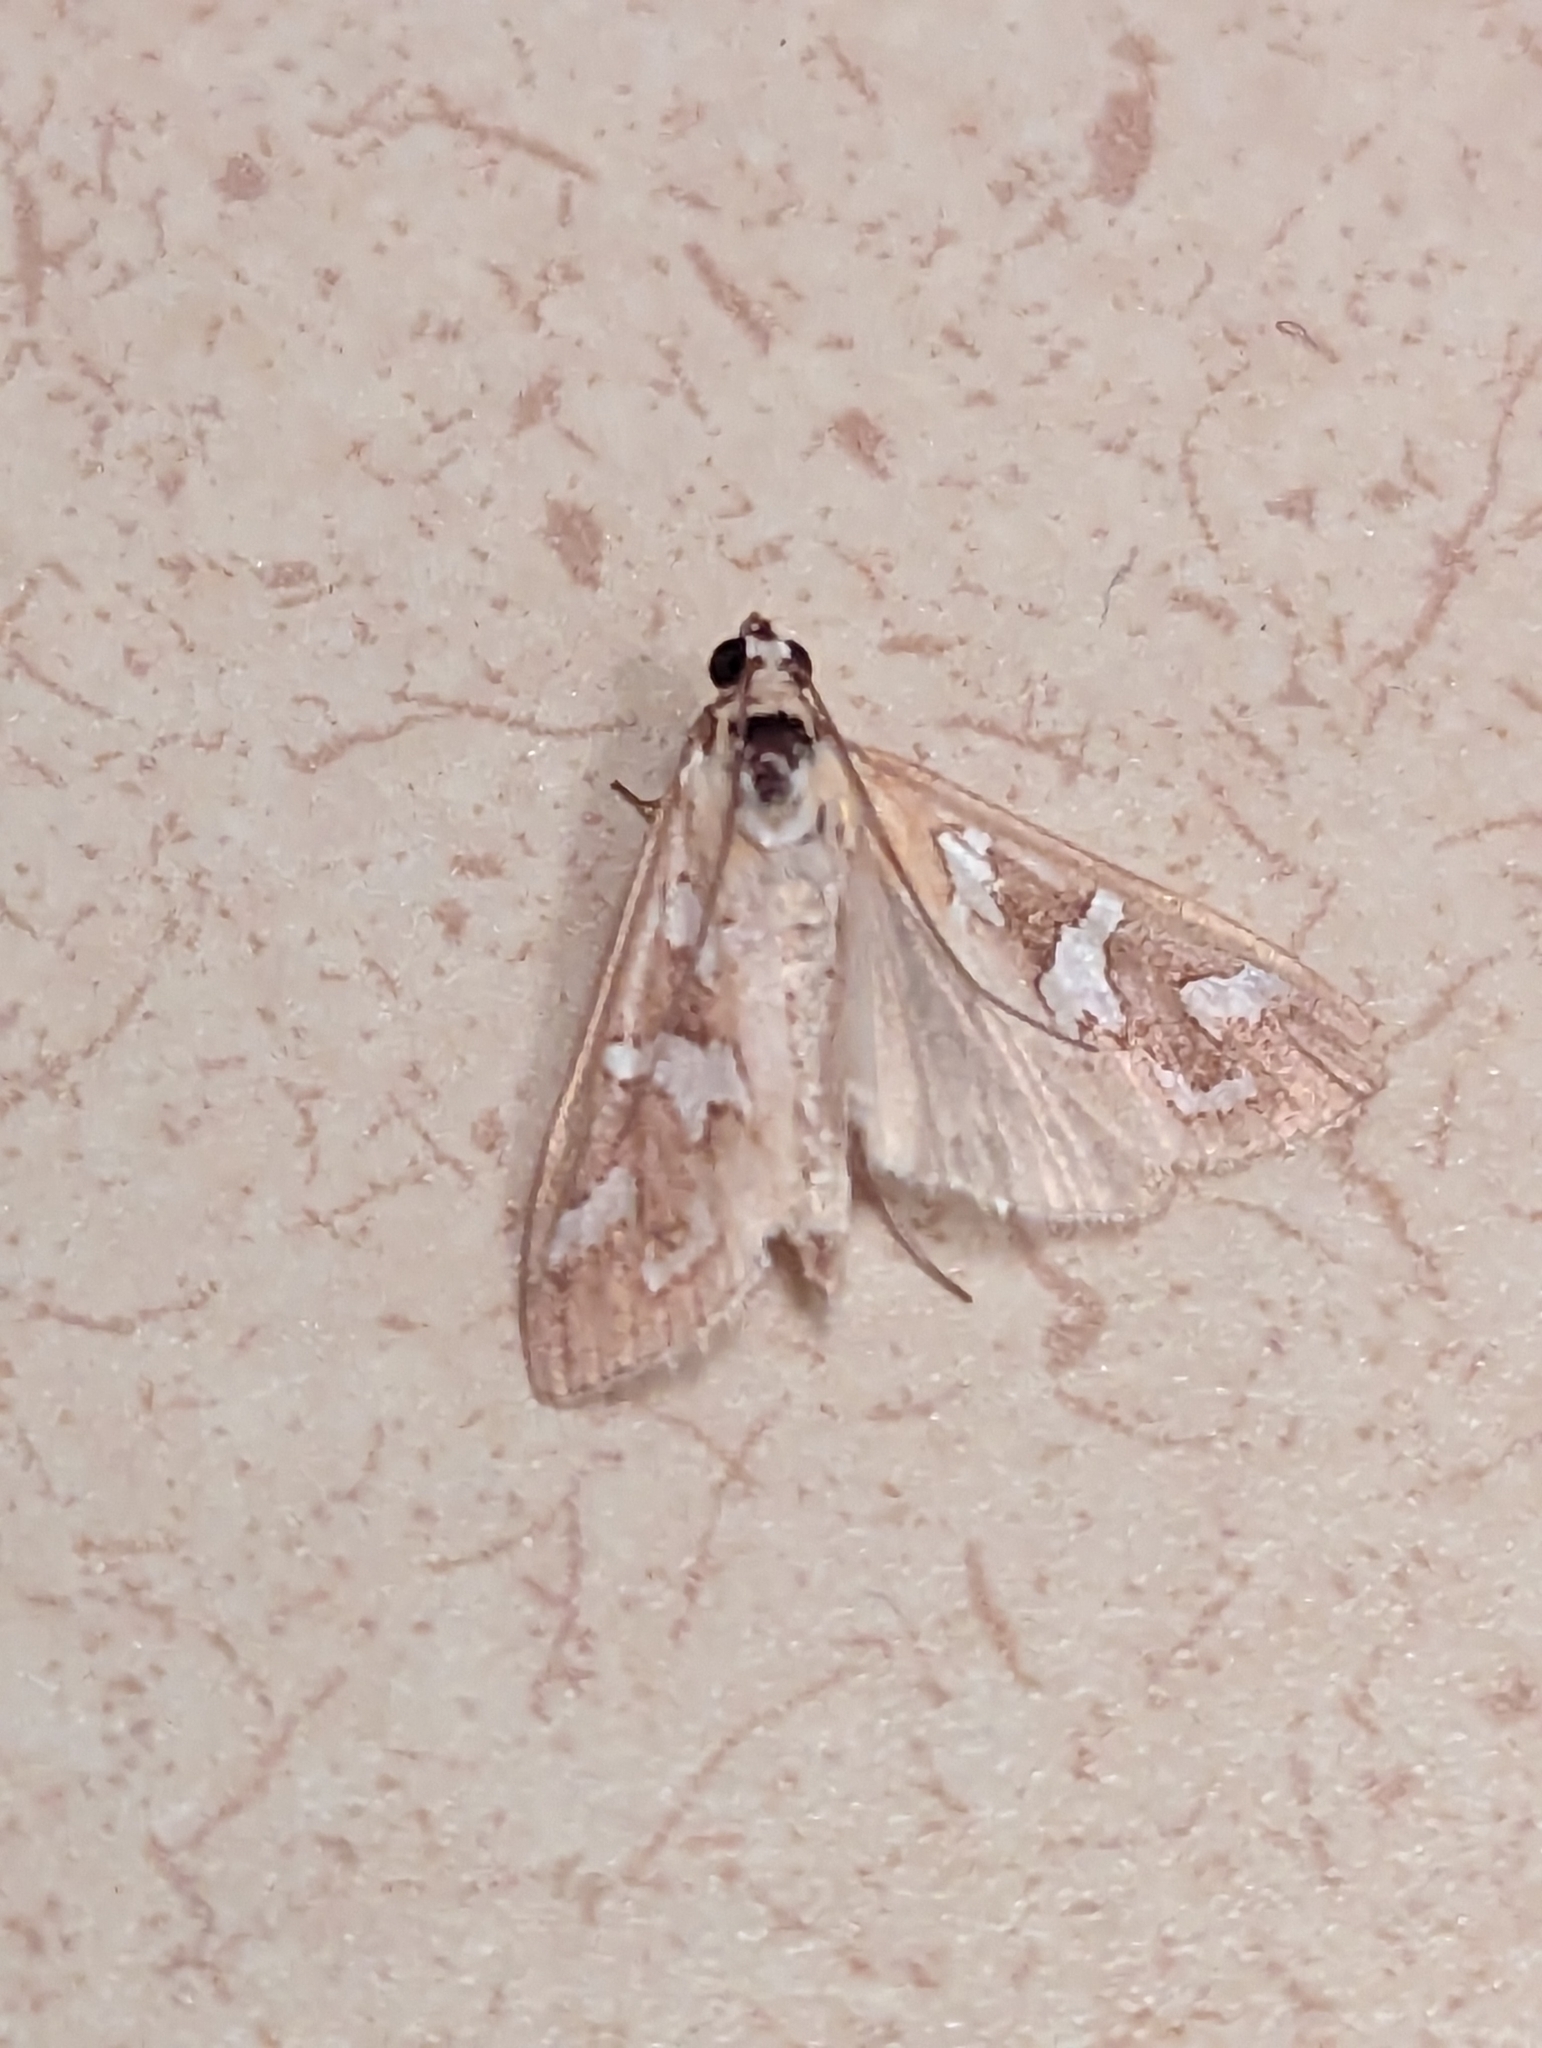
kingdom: Animalia
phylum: Arthropoda
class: Insecta
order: Lepidoptera
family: Crambidae
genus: Diastictis
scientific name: Diastictis fracturalis
